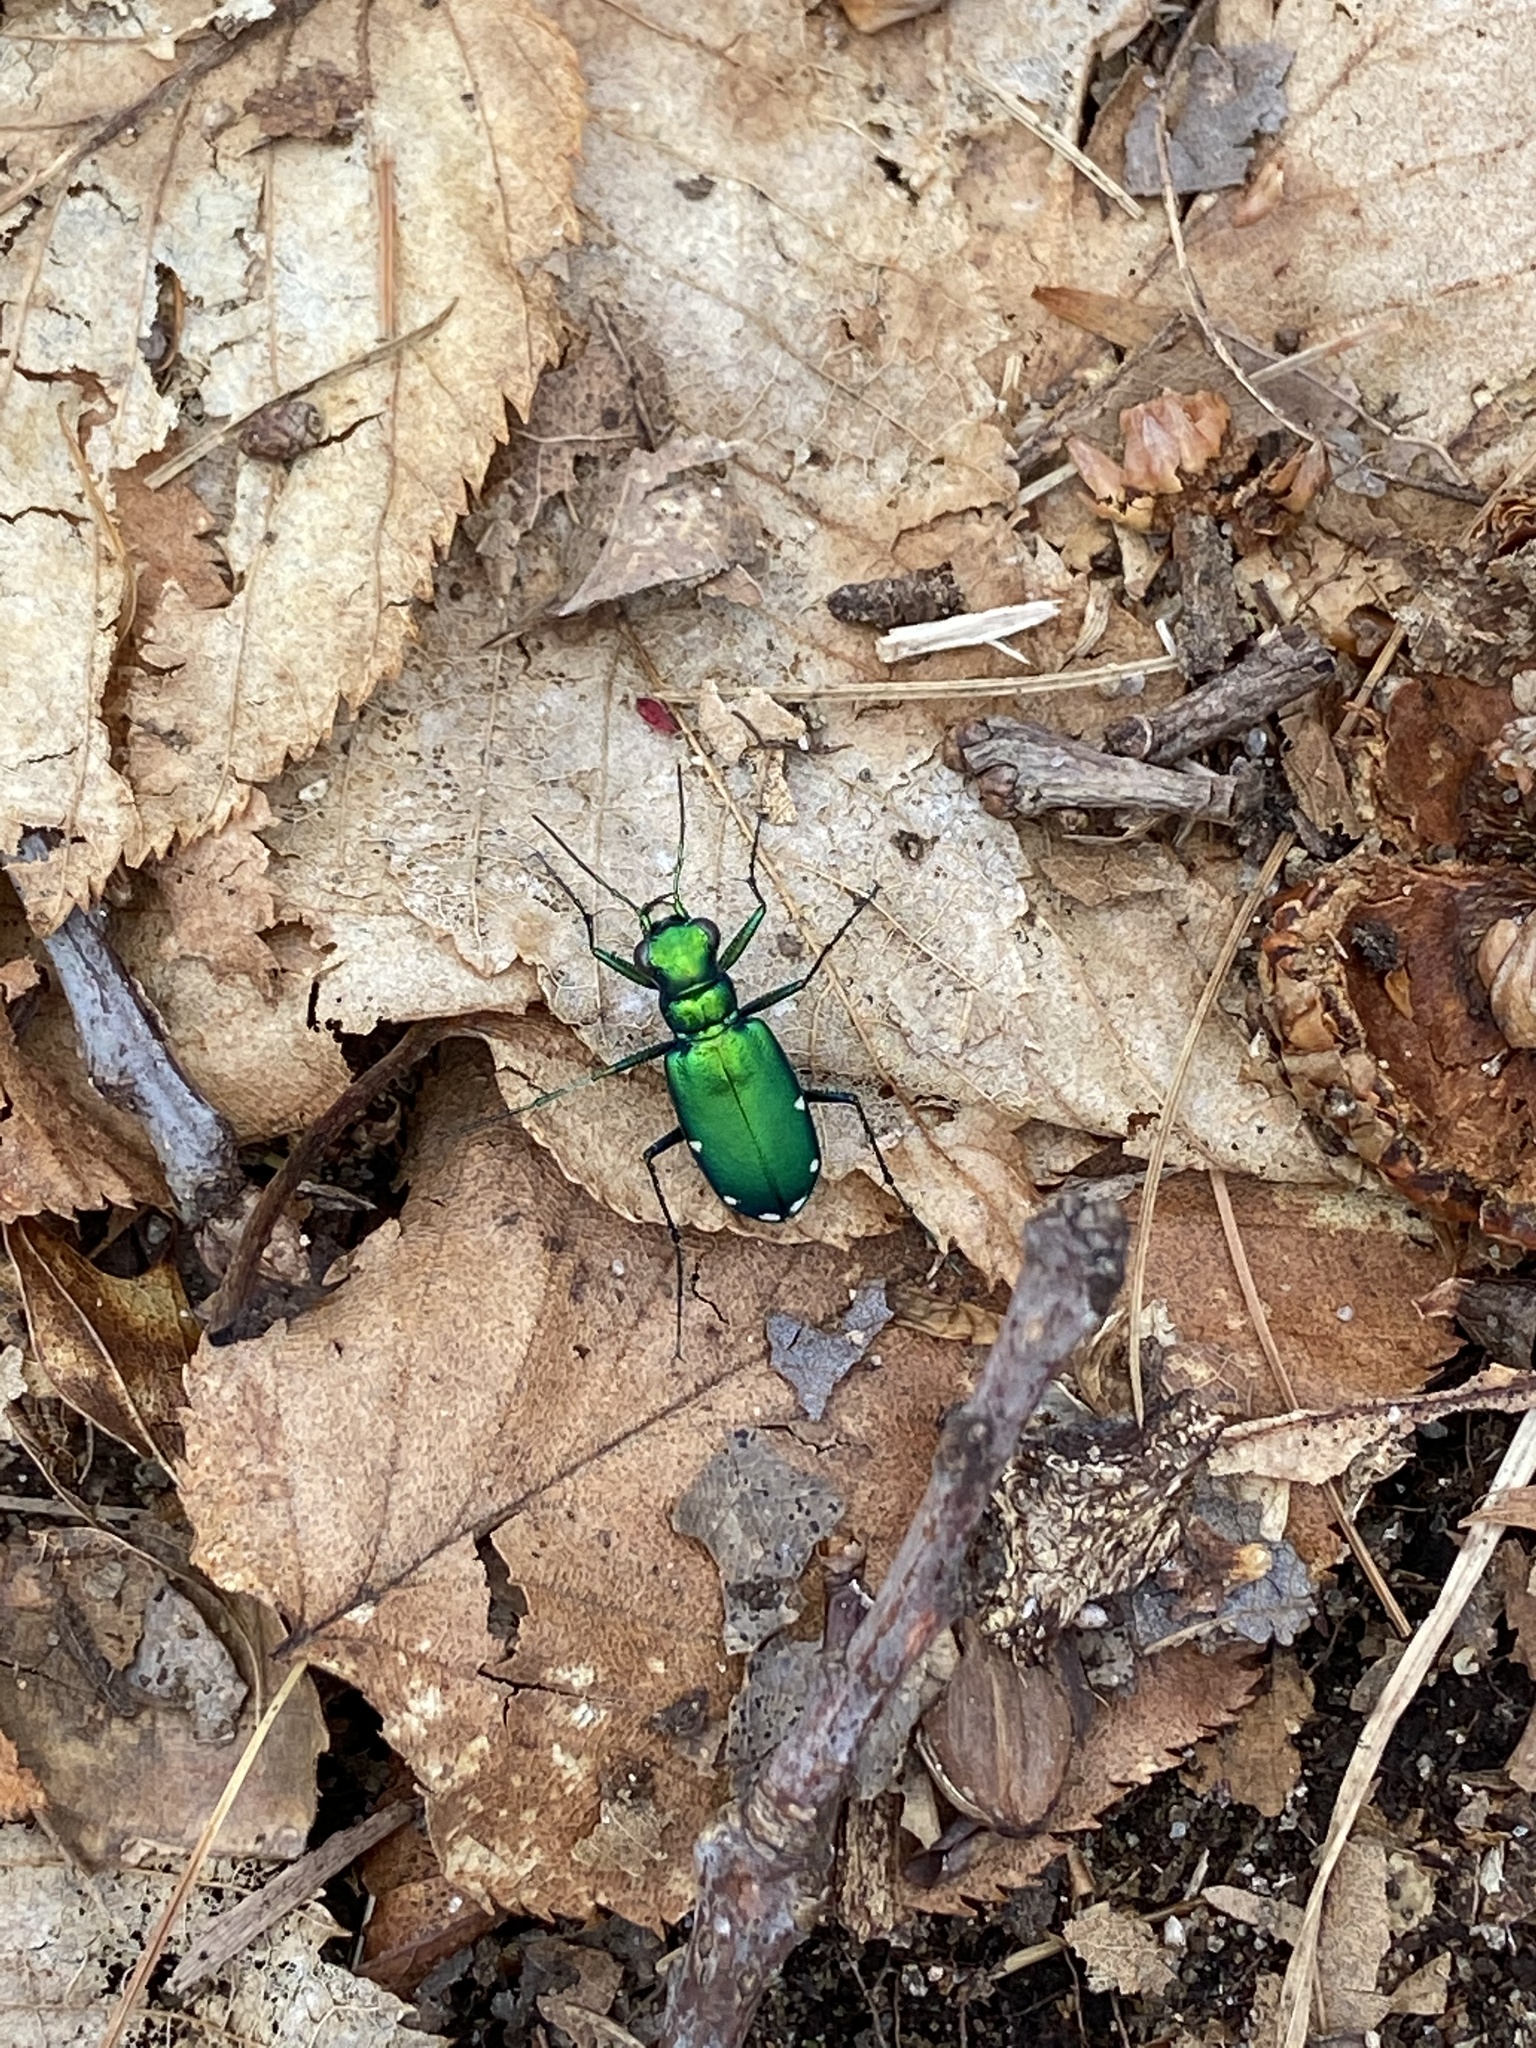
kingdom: Animalia
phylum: Arthropoda
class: Insecta
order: Coleoptera
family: Carabidae
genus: Cicindela
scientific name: Cicindela sexguttata
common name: Six-spotted tiger beetle
